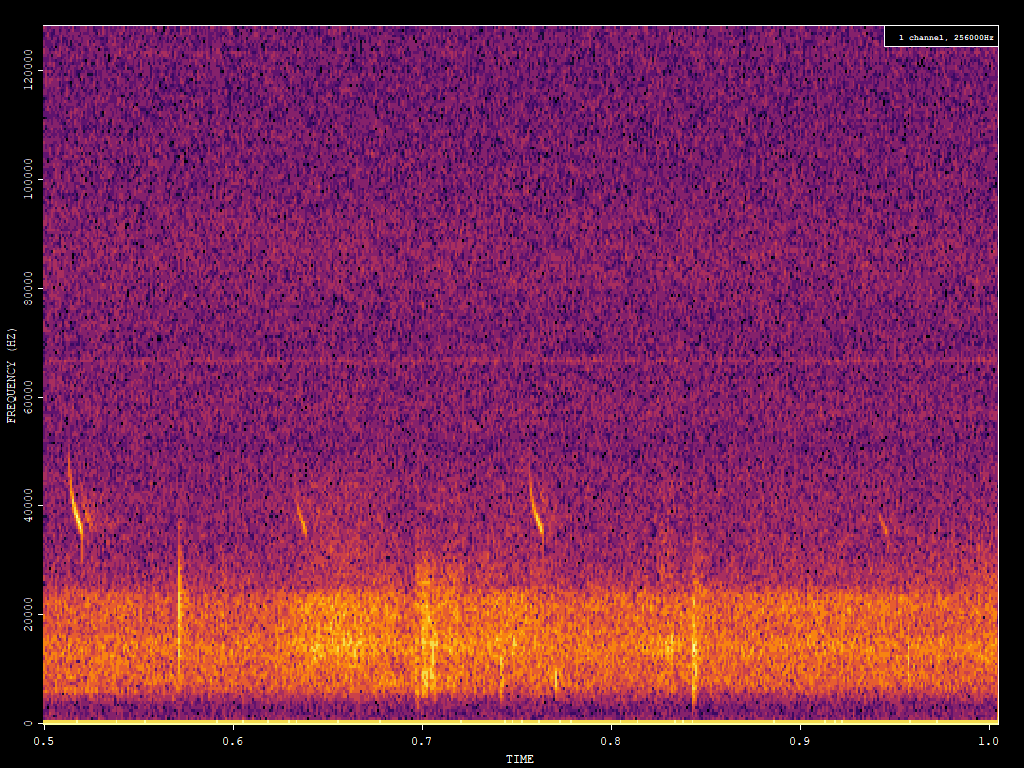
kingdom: Animalia
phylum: Chordata
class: Mammalia
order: Chiroptera
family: Vespertilionidae
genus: Lasiurus
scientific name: Lasiurus borealis
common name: Eastern red bat
